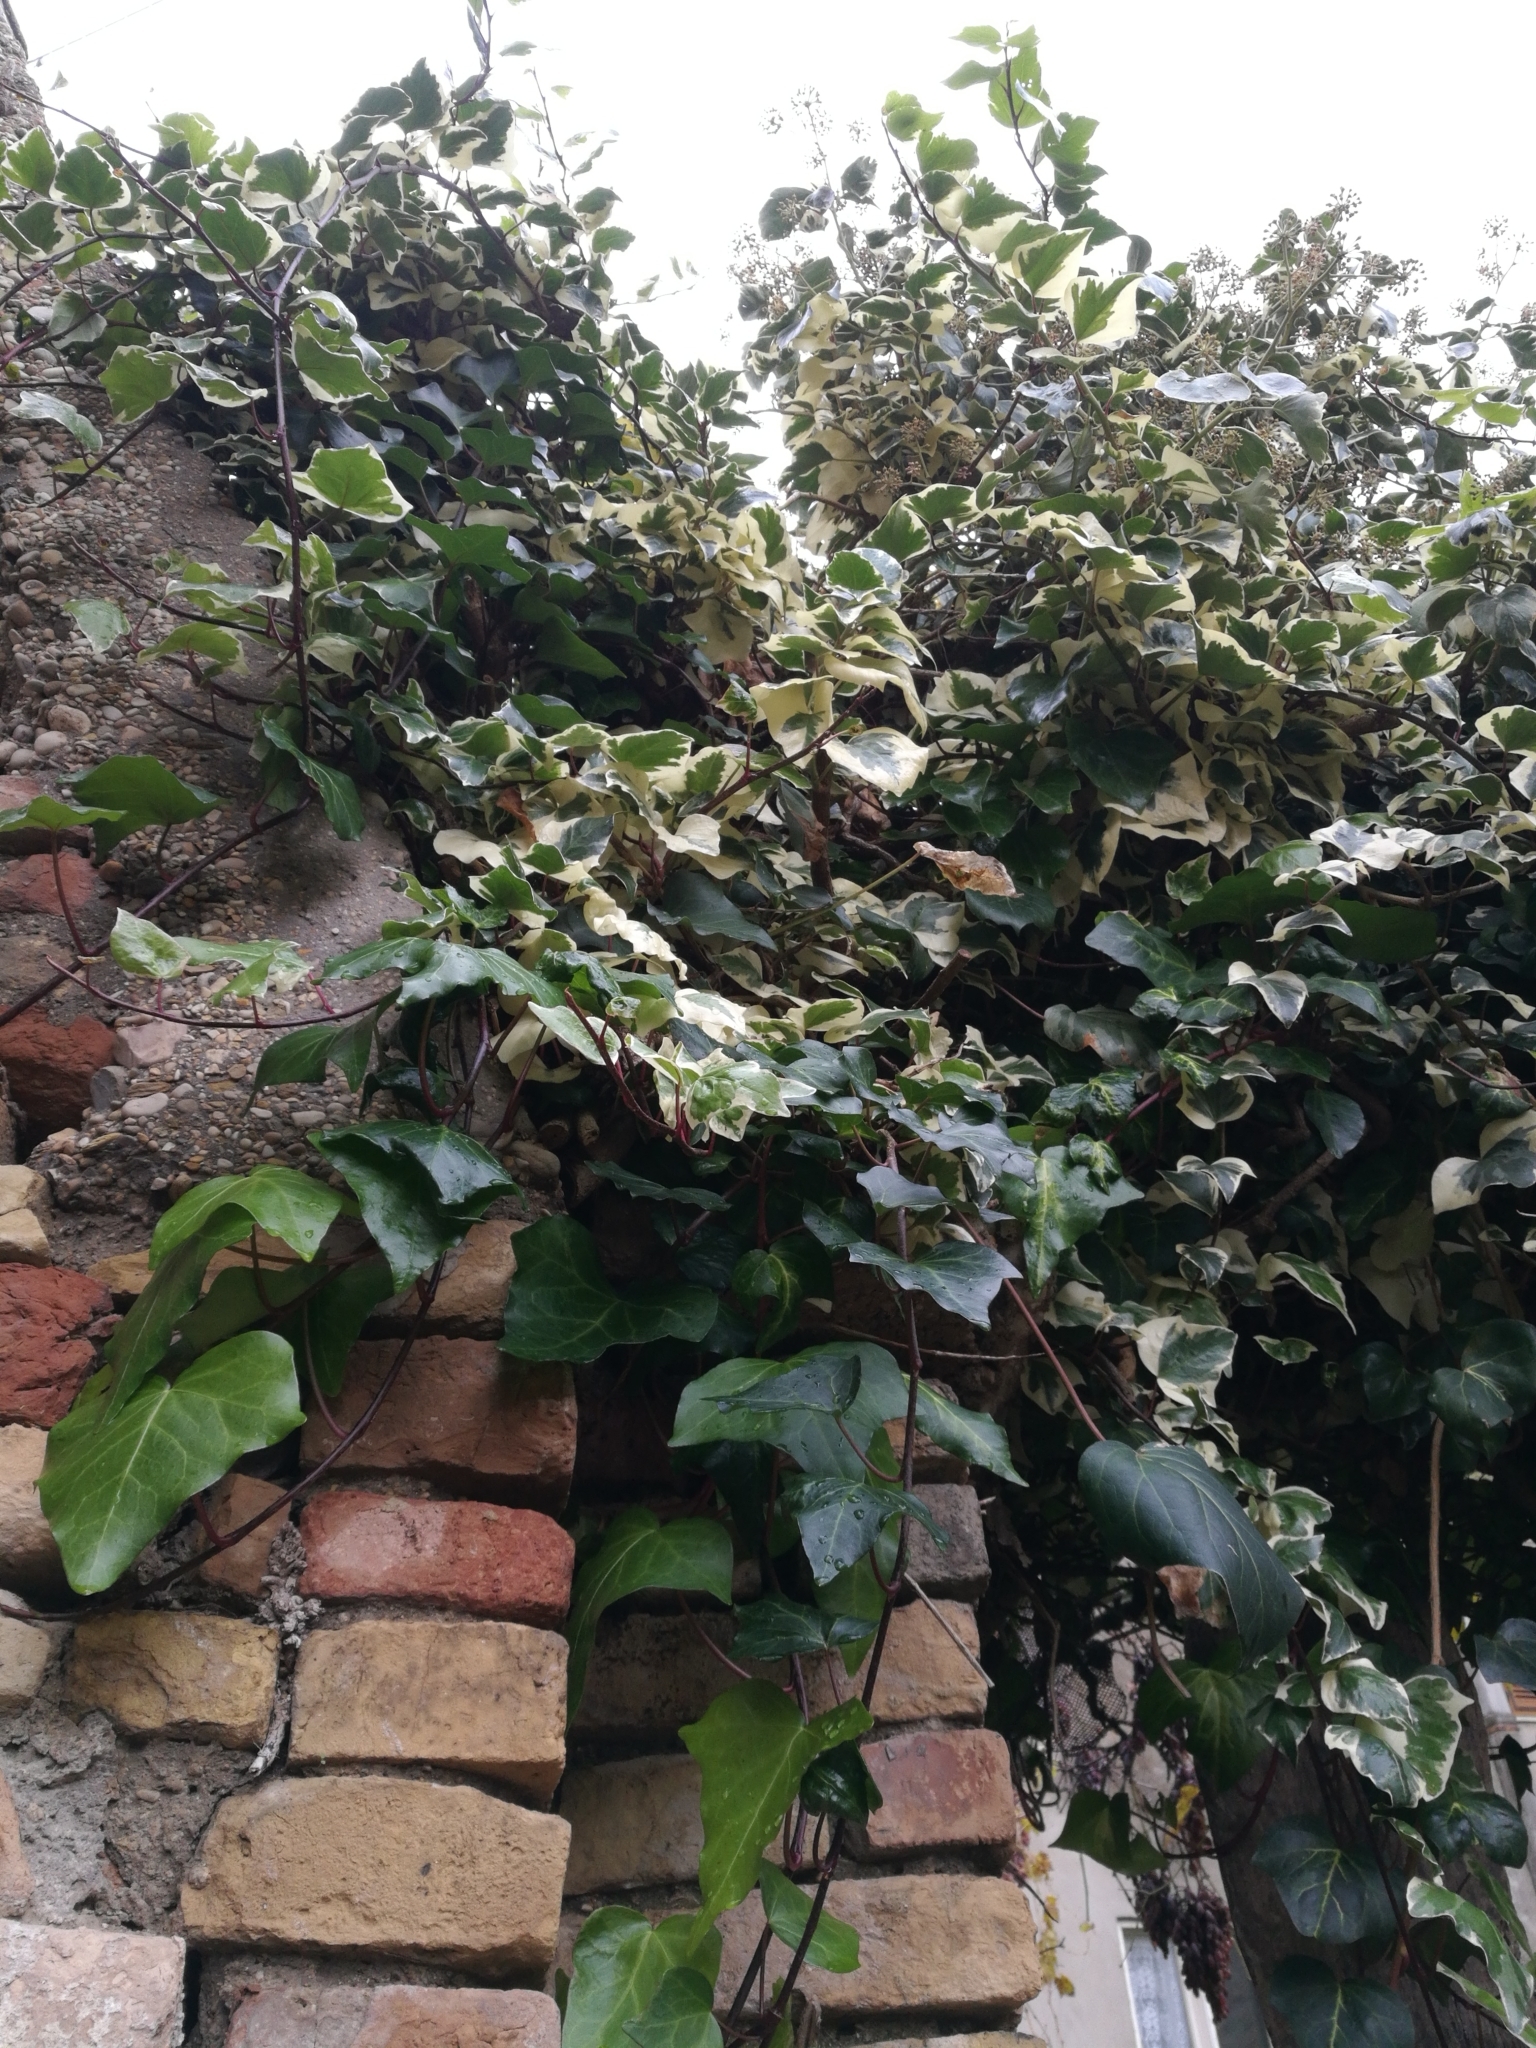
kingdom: Plantae
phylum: Tracheophyta
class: Magnoliopsida
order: Apiales
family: Araliaceae
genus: Hedera
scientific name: Hedera helix
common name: Ivy
